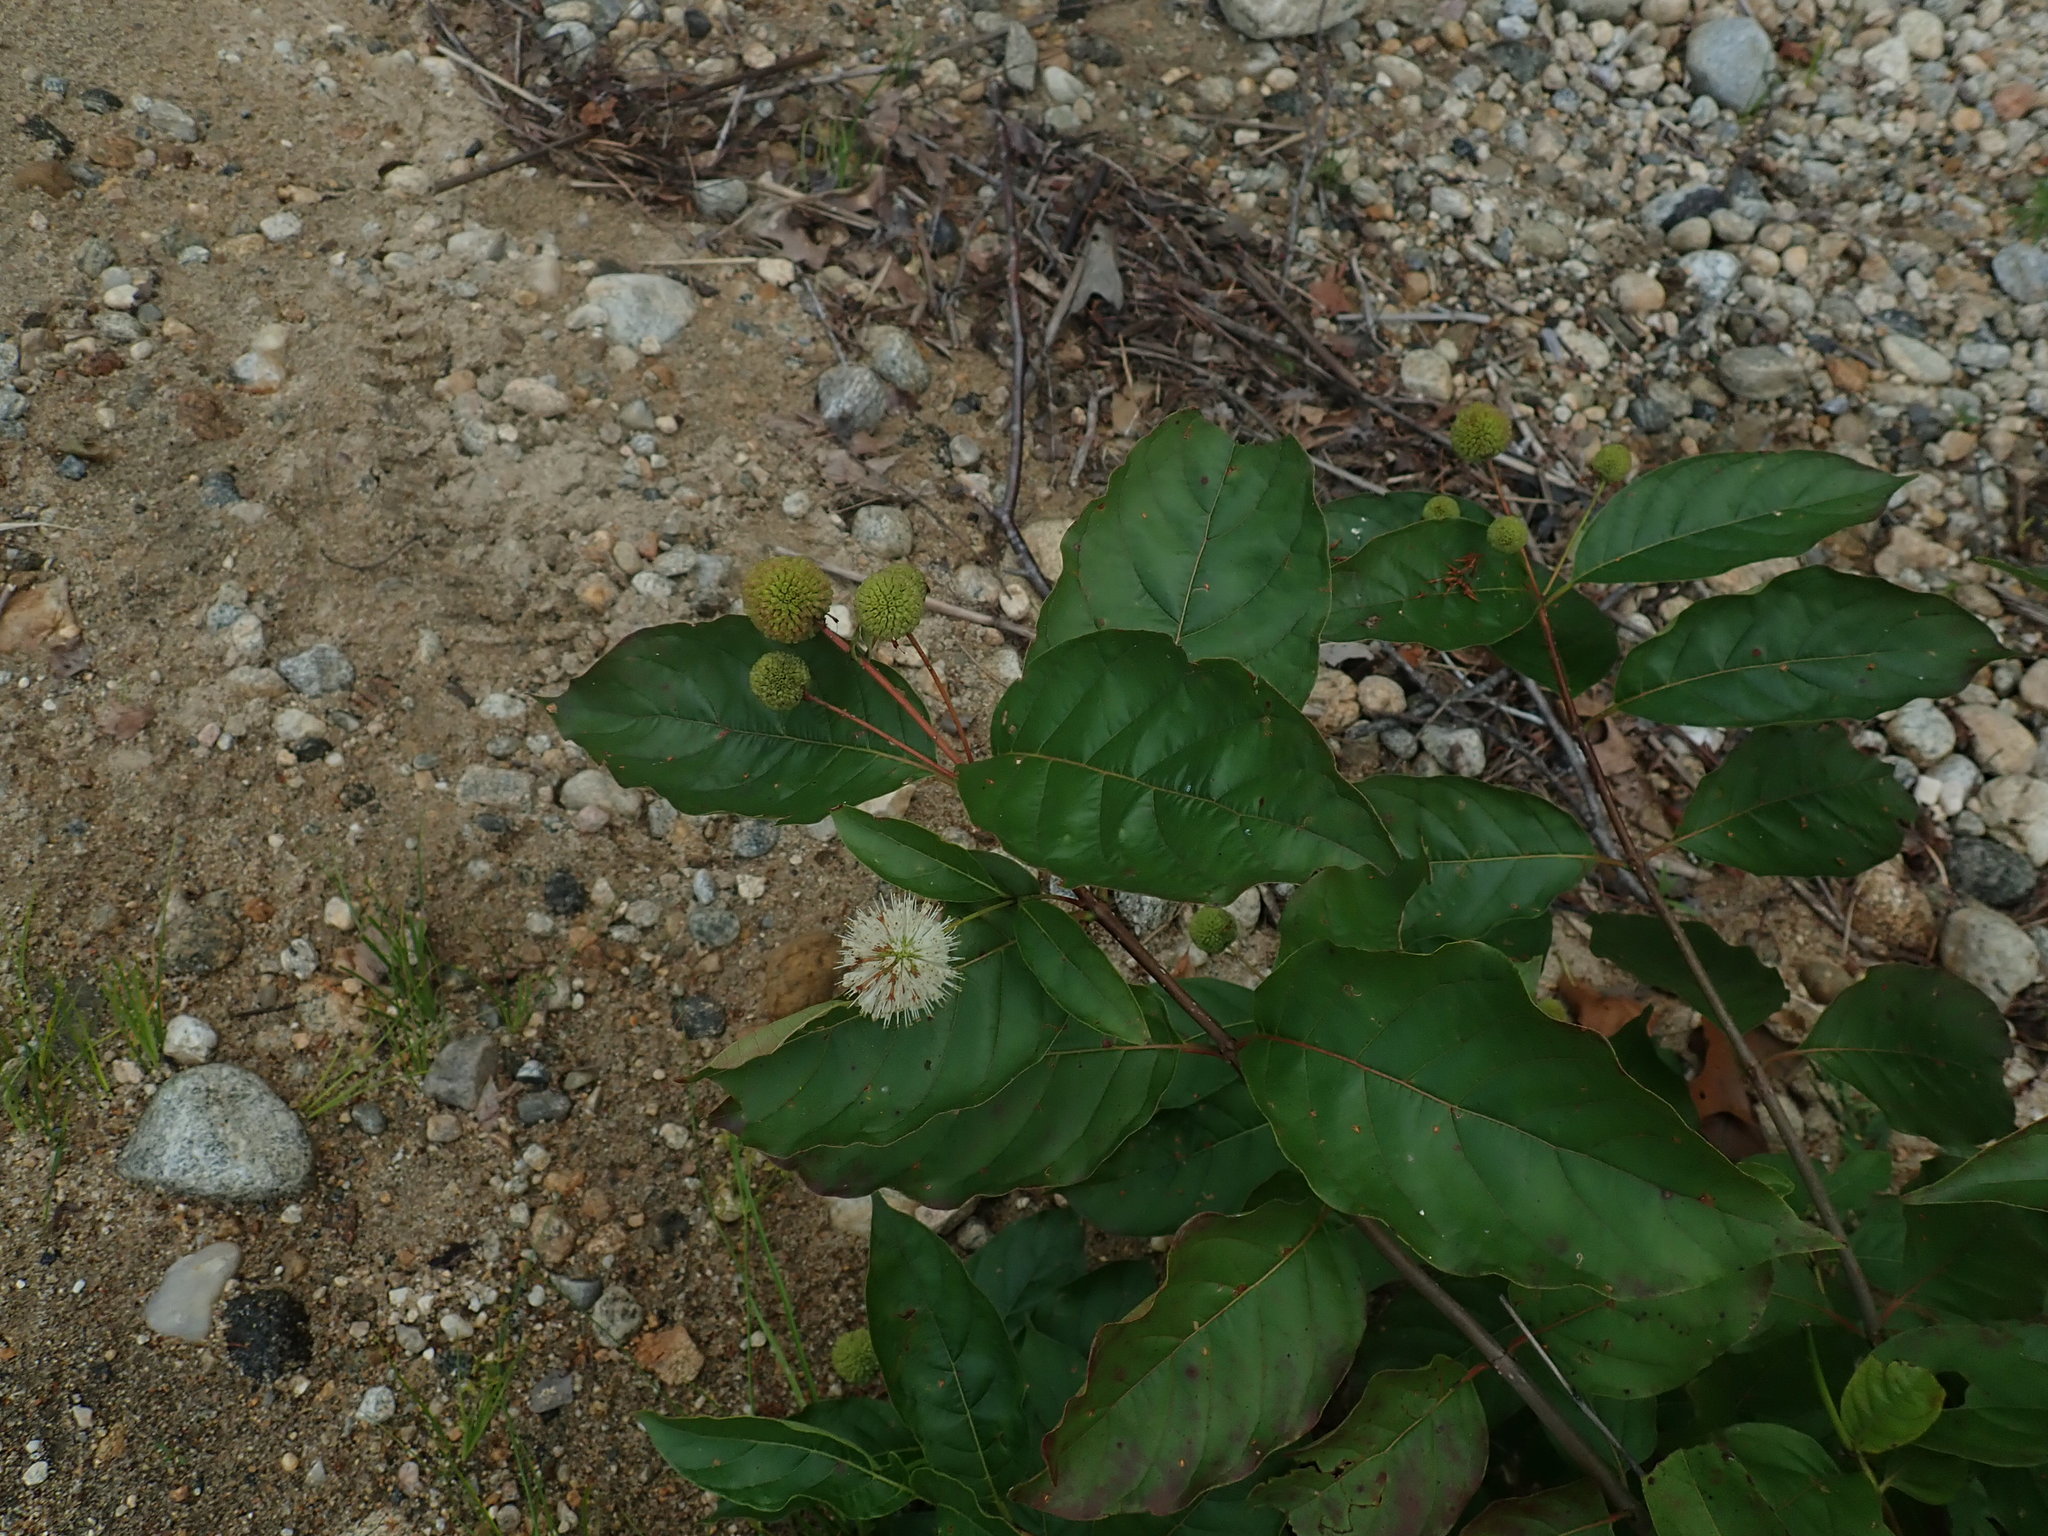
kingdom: Plantae
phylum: Tracheophyta
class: Magnoliopsida
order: Gentianales
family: Rubiaceae
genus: Cephalanthus
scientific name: Cephalanthus occidentalis
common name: Button-willow
